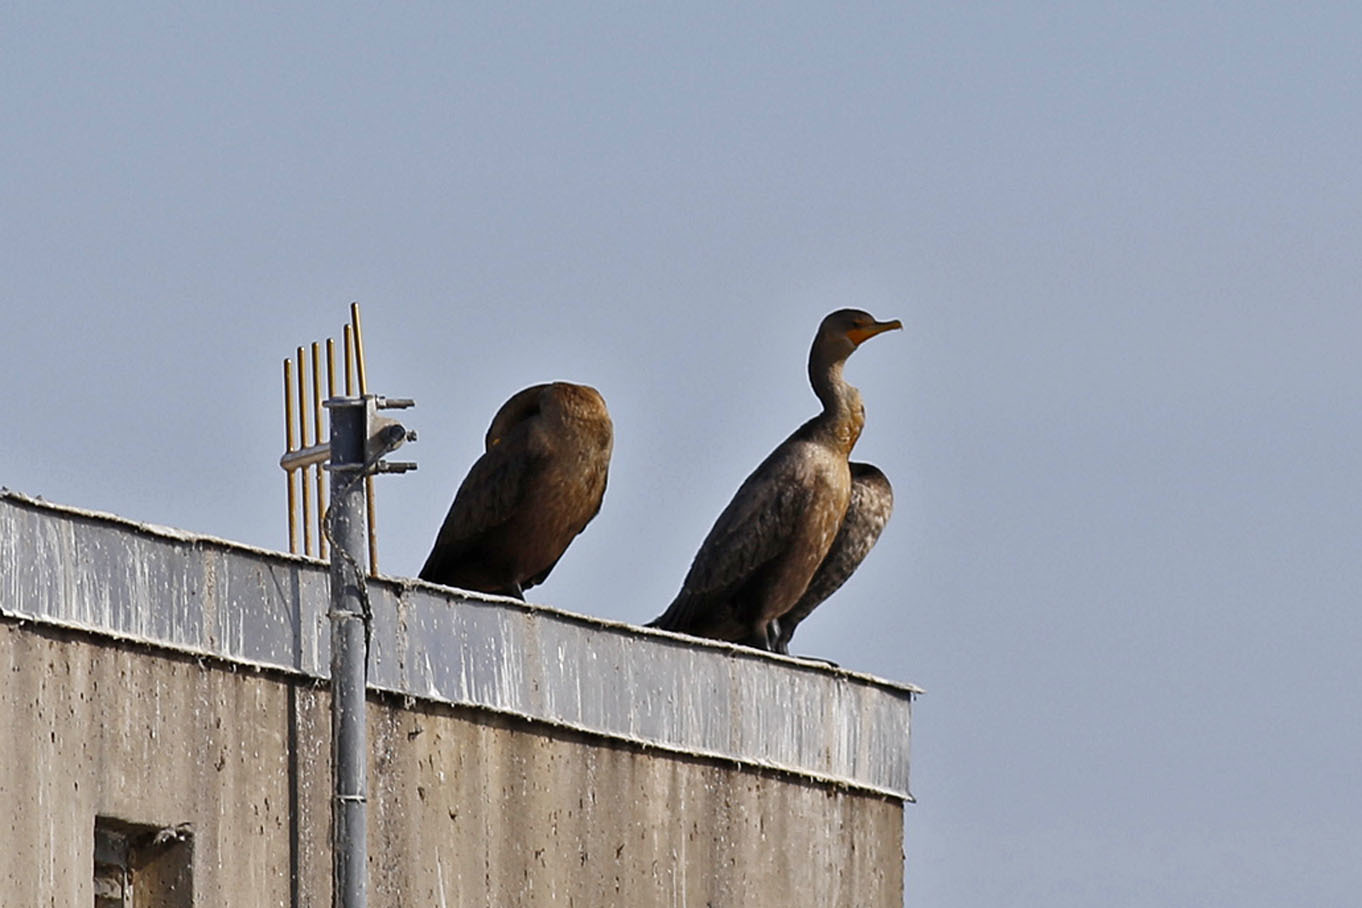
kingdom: Animalia
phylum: Chordata
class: Aves
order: Suliformes
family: Phalacrocoracidae
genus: Phalacrocorax
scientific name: Phalacrocorax auritus
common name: Double-crested cormorant
